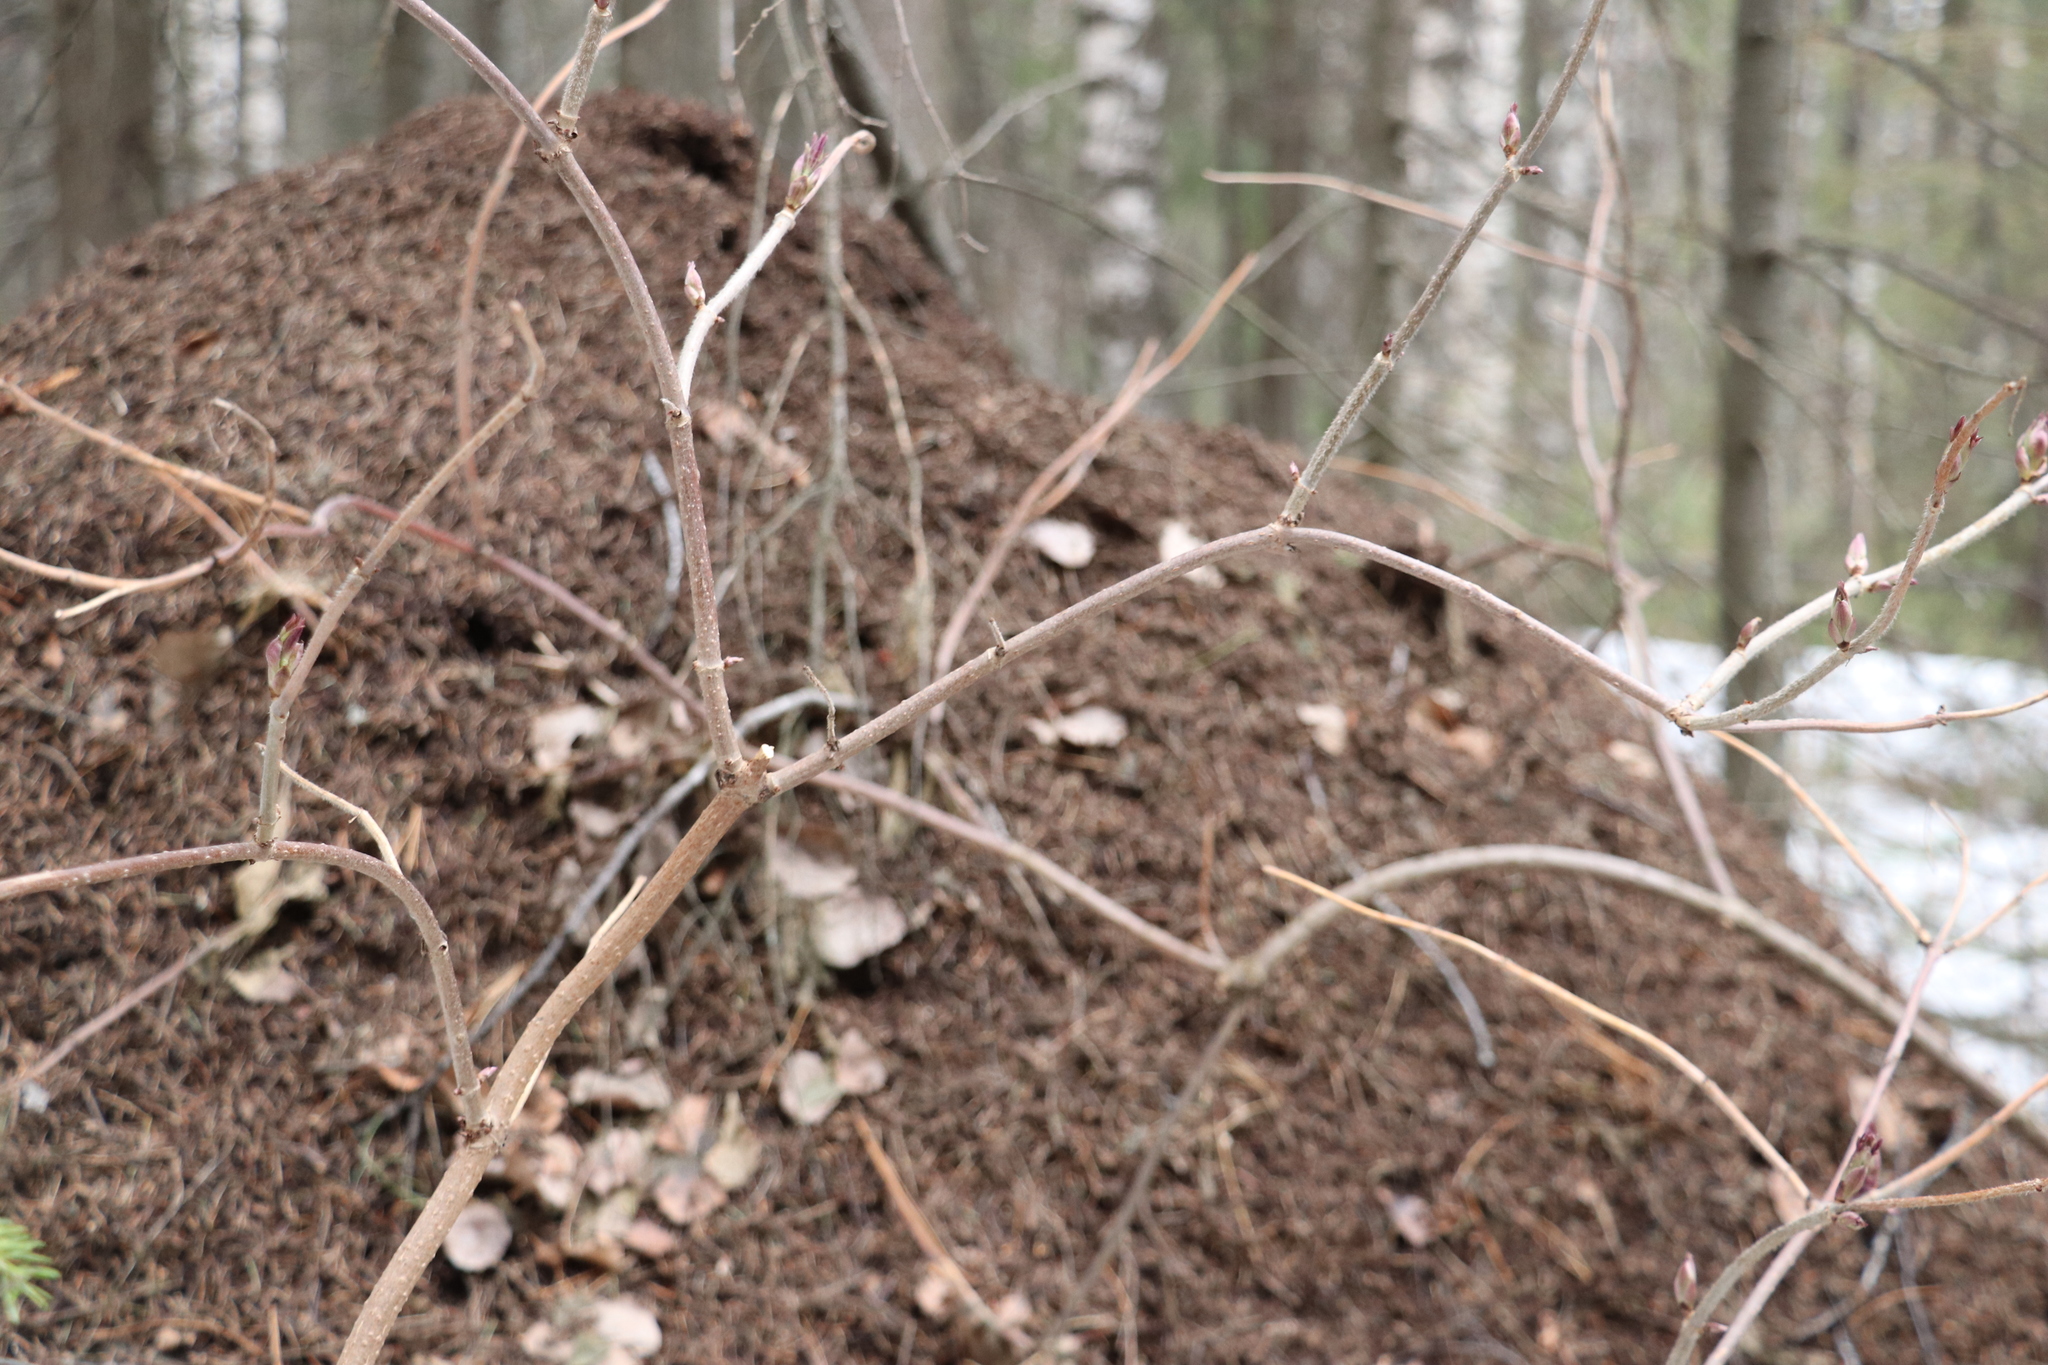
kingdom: Plantae
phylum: Tracheophyta
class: Magnoliopsida
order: Dipsacales
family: Viburnaceae
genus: Sambucus
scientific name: Sambucus sibirica
